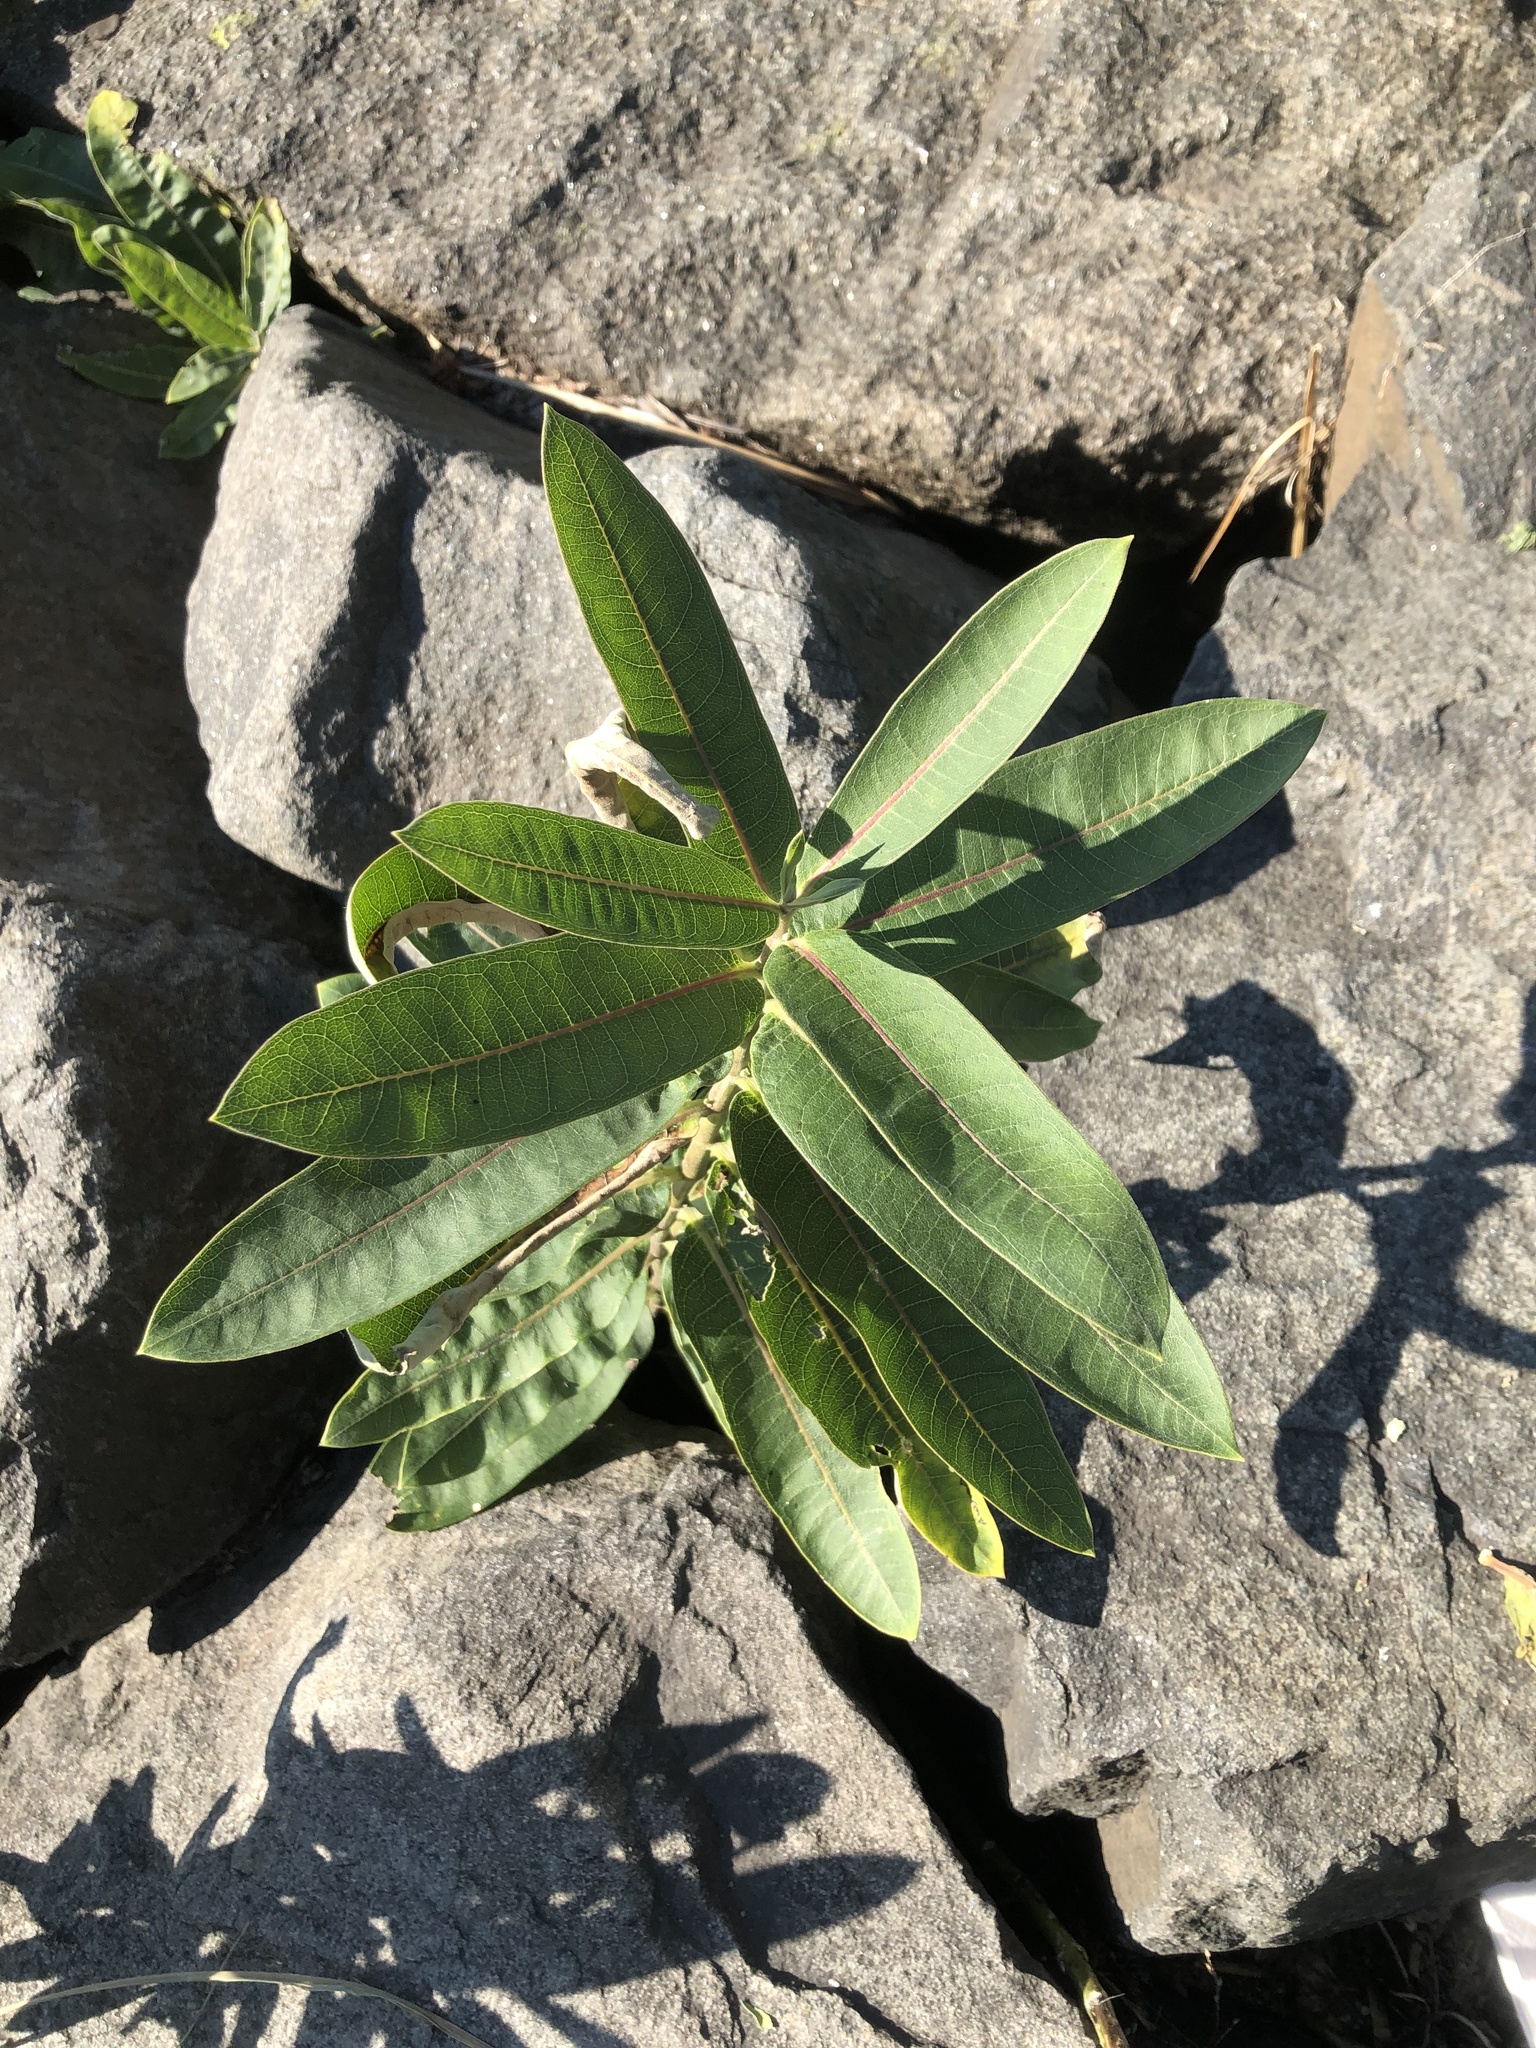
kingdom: Plantae
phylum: Tracheophyta
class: Magnoliopsida
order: Gentianales
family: Apocynaceae
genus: Asclepias
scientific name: Asclepias syriaca
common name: Common milkweed
